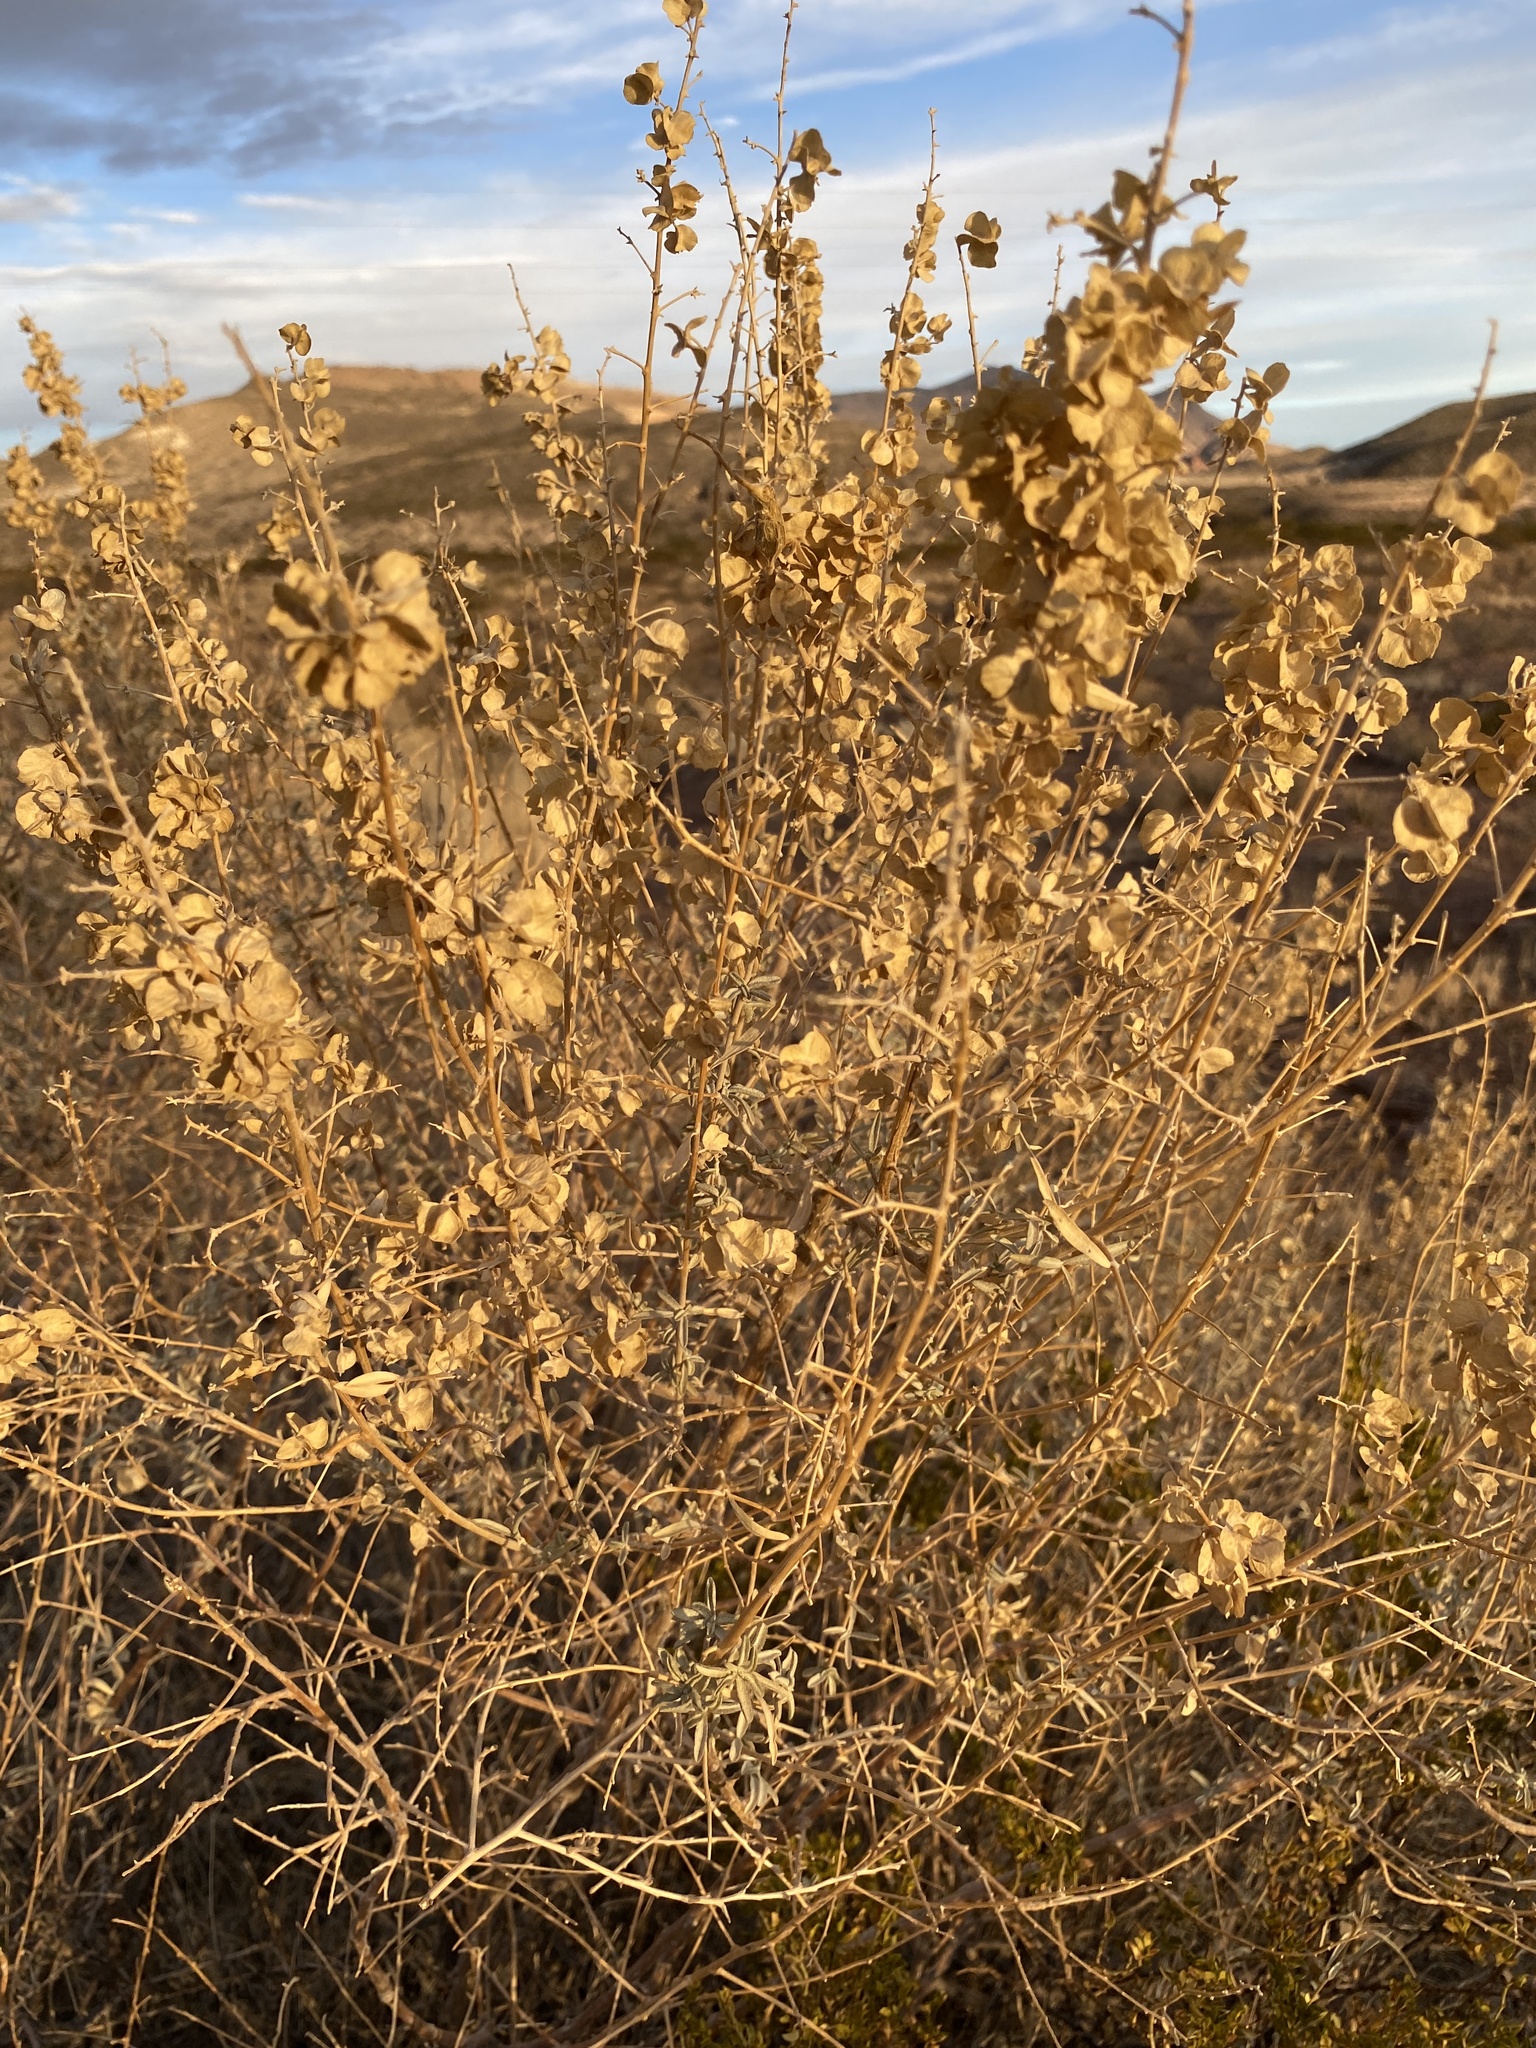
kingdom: Plantae
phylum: Tracheophyta
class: Magnoliopsida
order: Caryophyllales
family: Amaranthaceae
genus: Atriplex
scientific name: Atriplex canescens
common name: Four-wing saltbush
